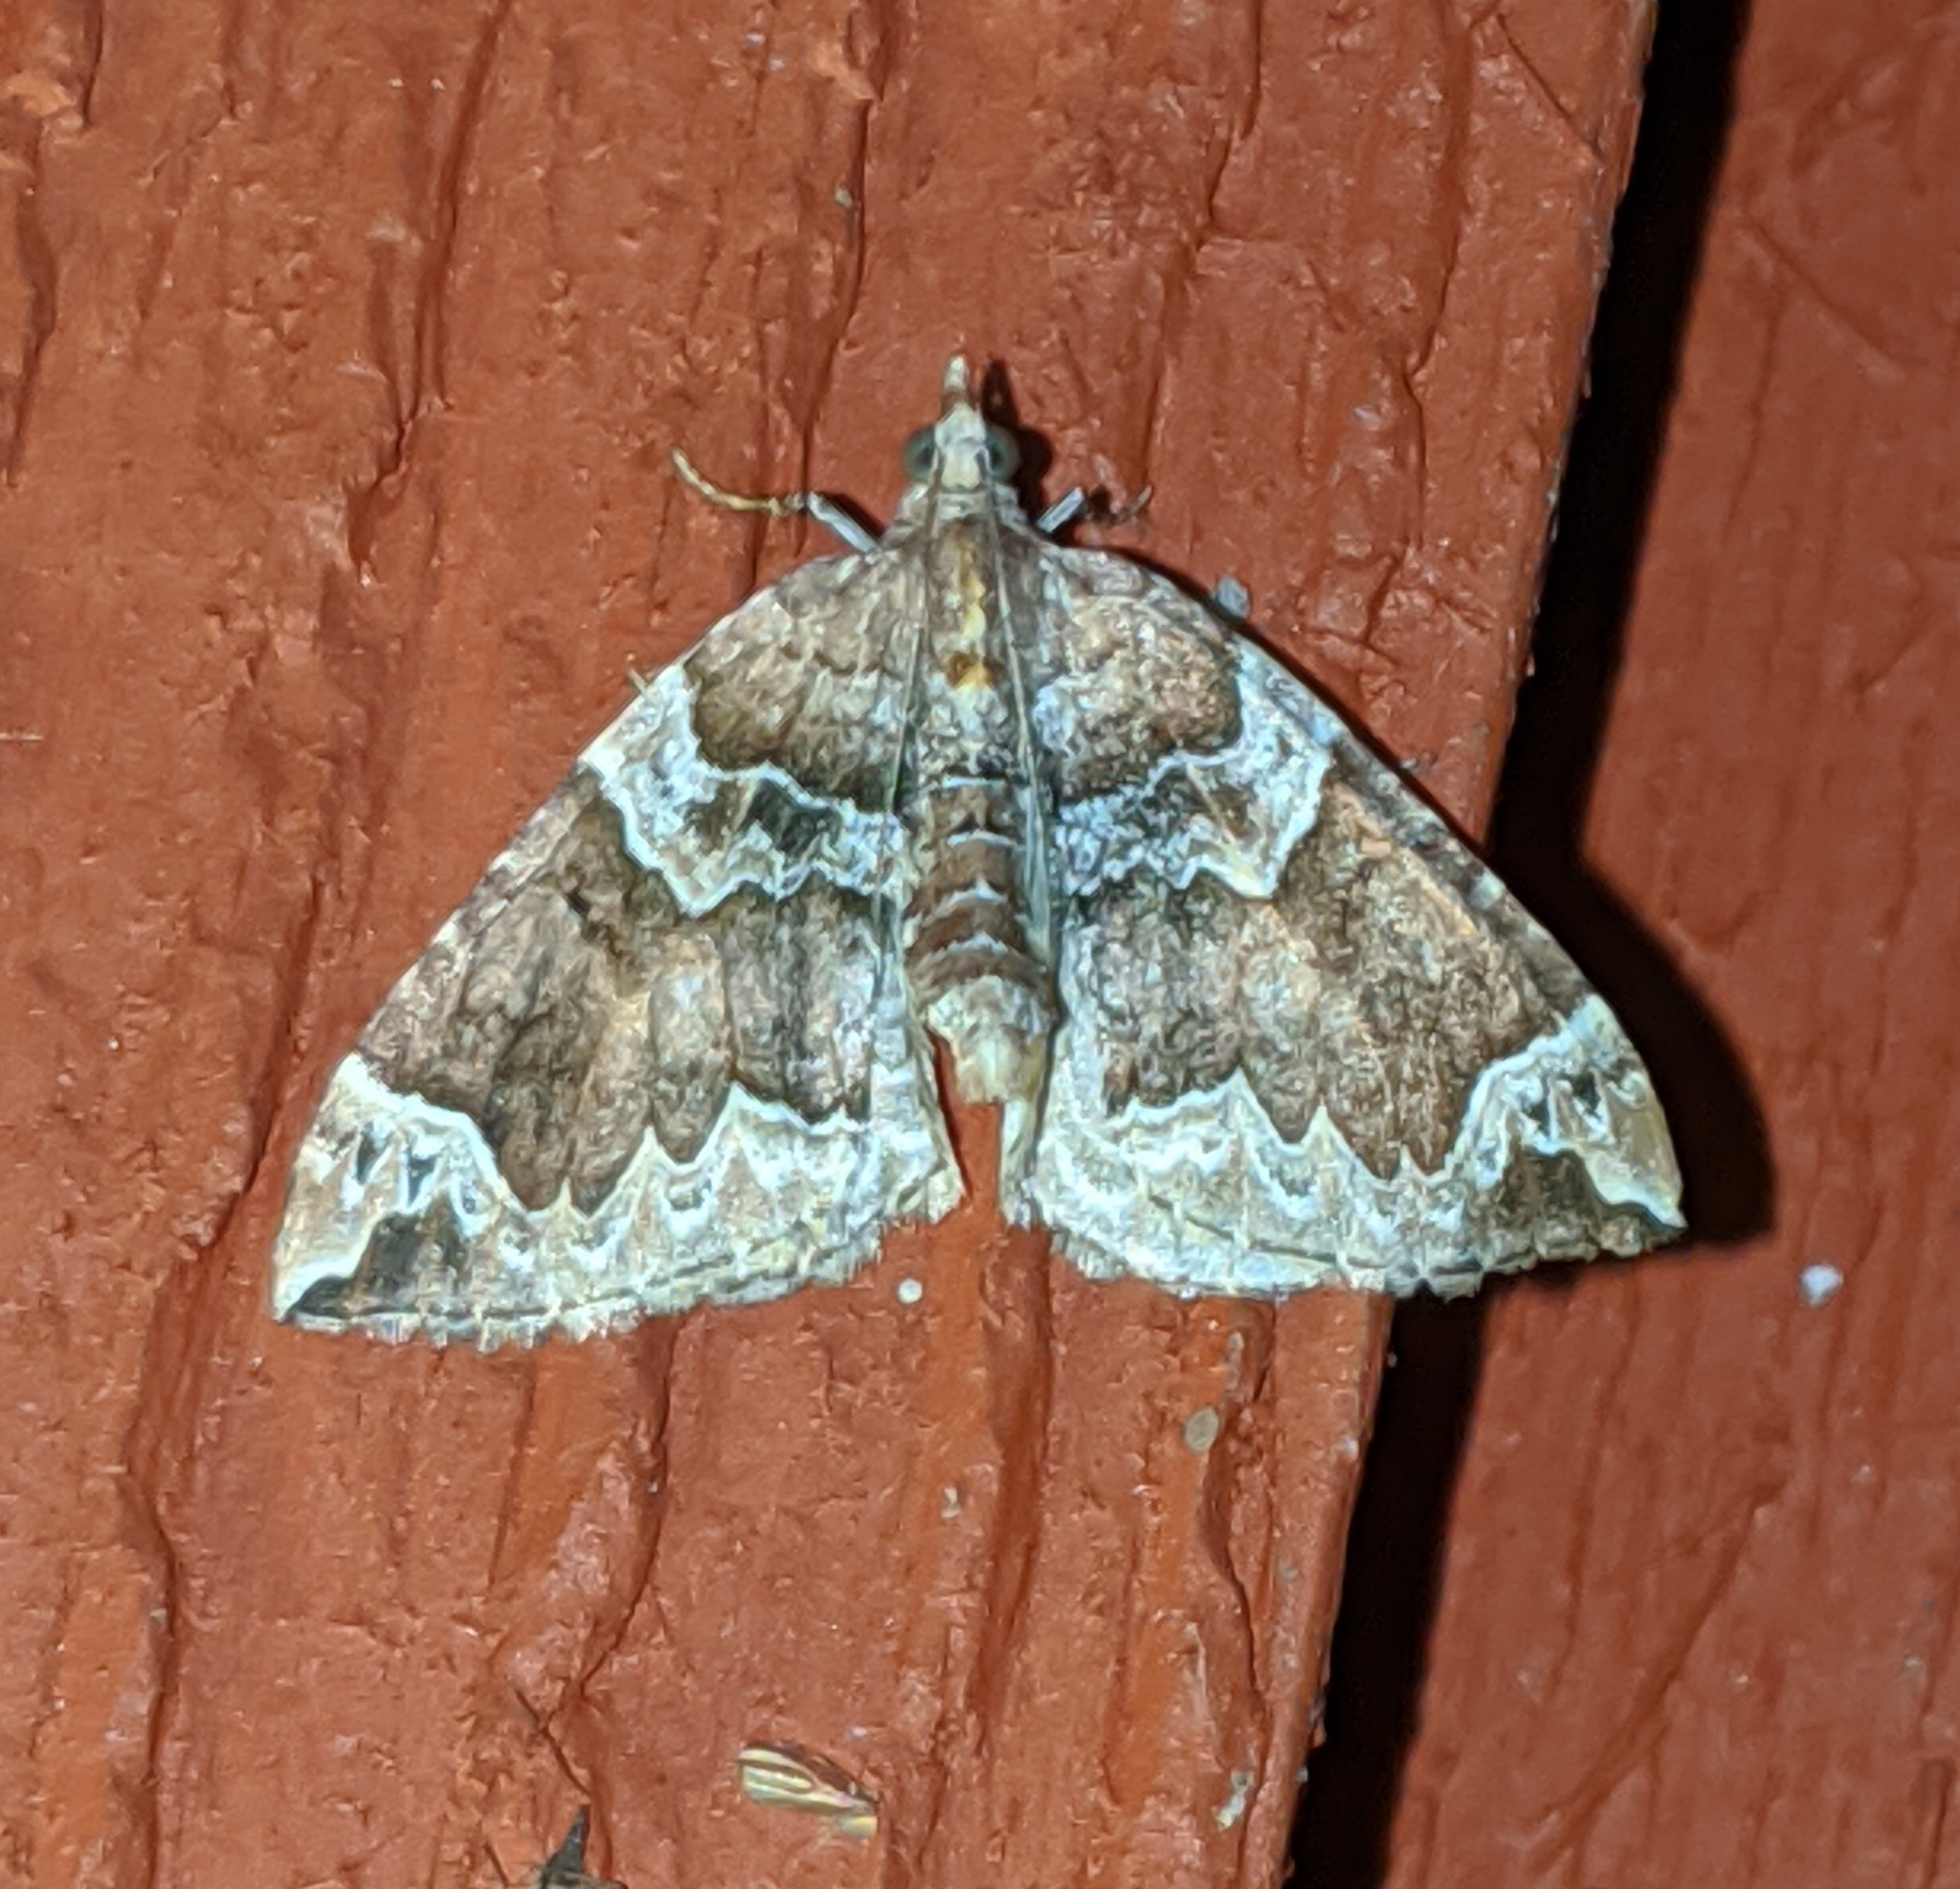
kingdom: Animalia
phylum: Arthropoda
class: Insecta
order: Lepidoptera
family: Geometridae
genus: Eulithis
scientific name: Eulithis xylina
